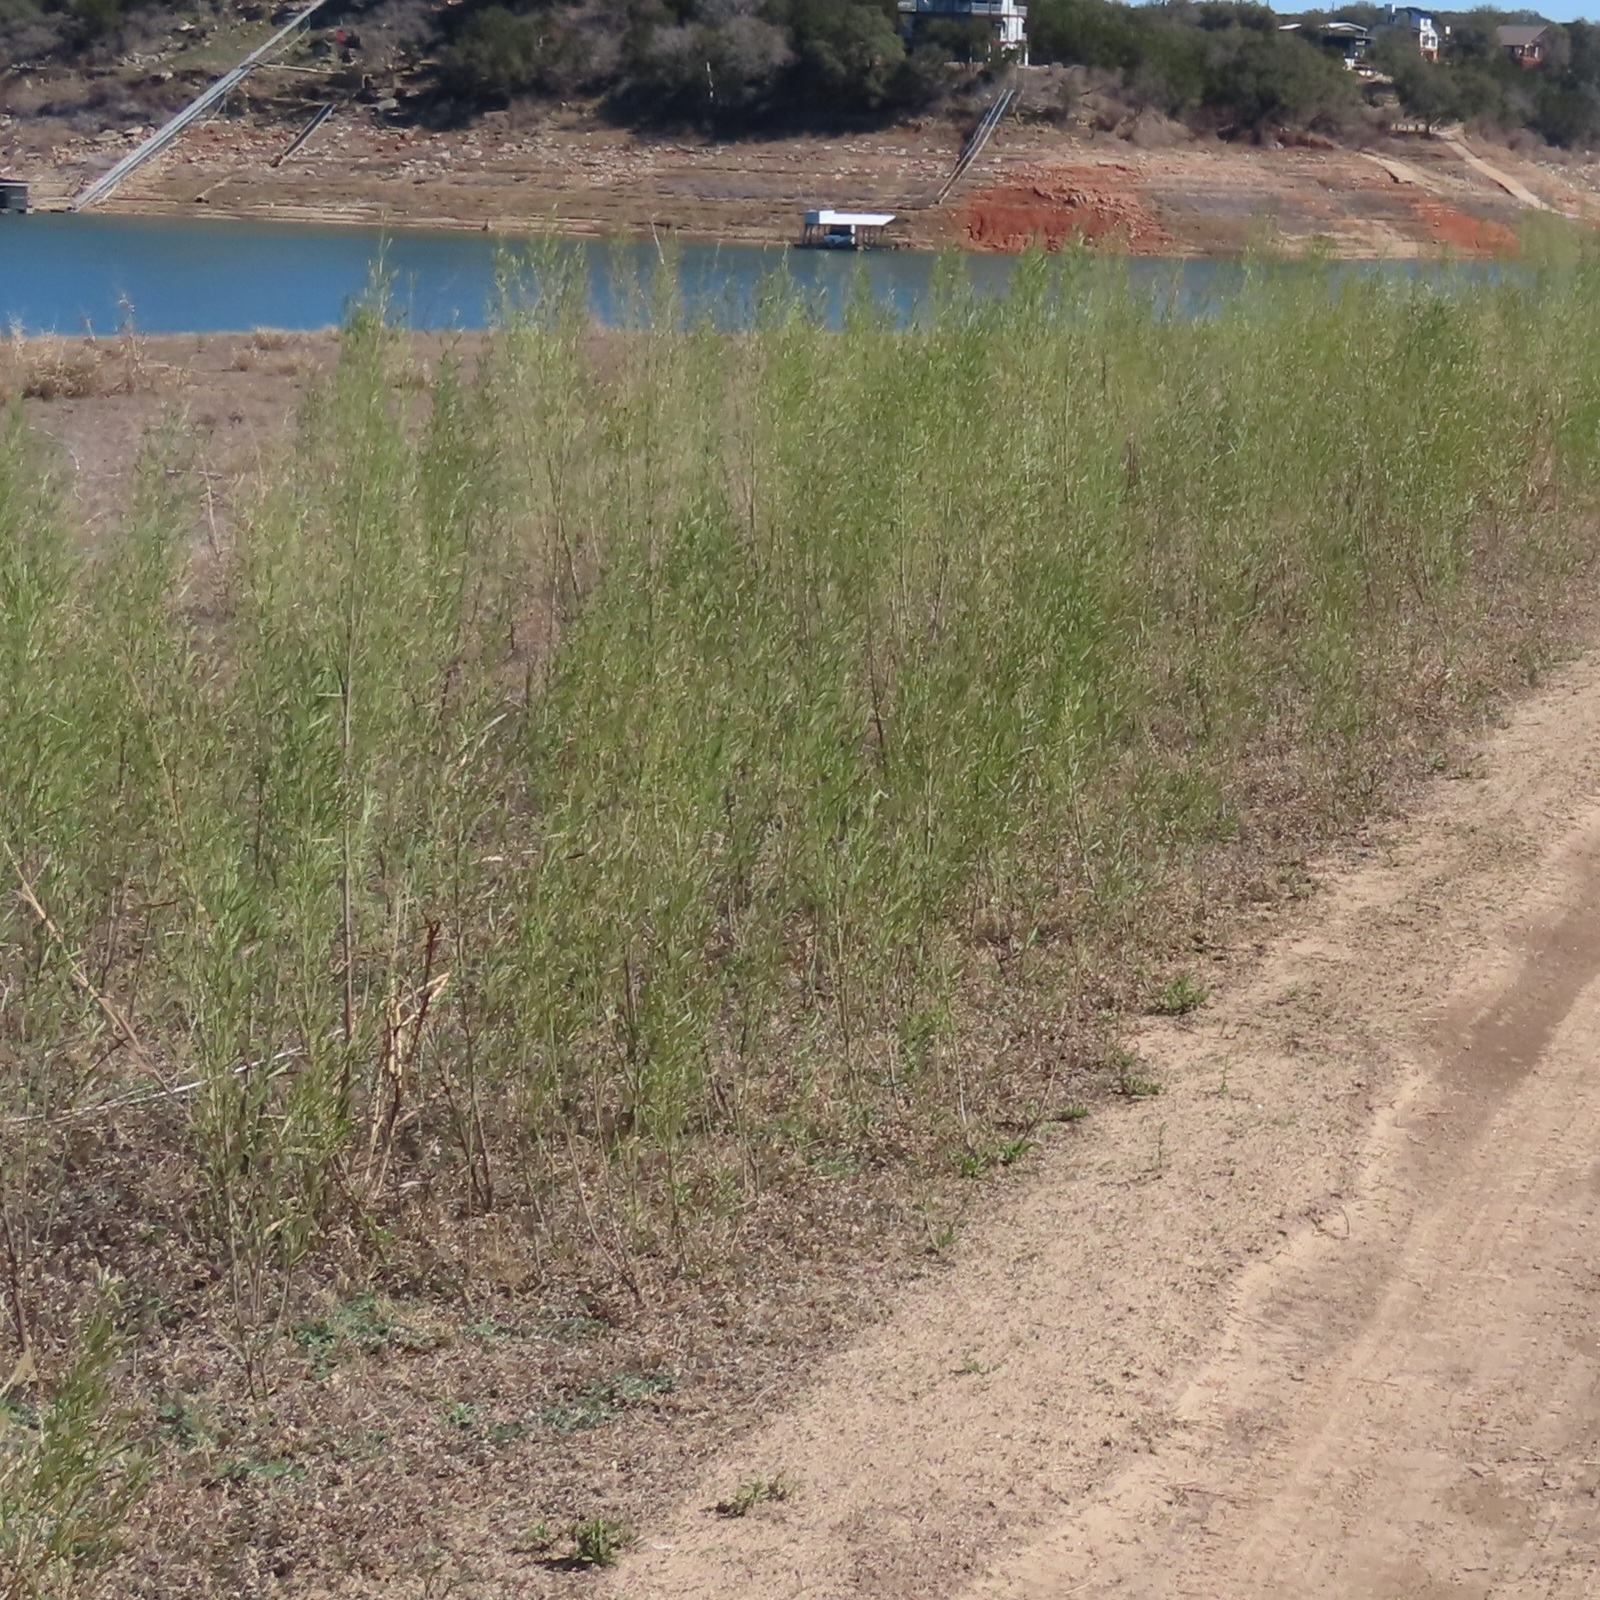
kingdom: Plantae
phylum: Tracheophyta
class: Magnoliopsida
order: Asterales
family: Asteraceae
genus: Baccharis
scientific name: Baccharis neglecta
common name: Roosevelt-weed
